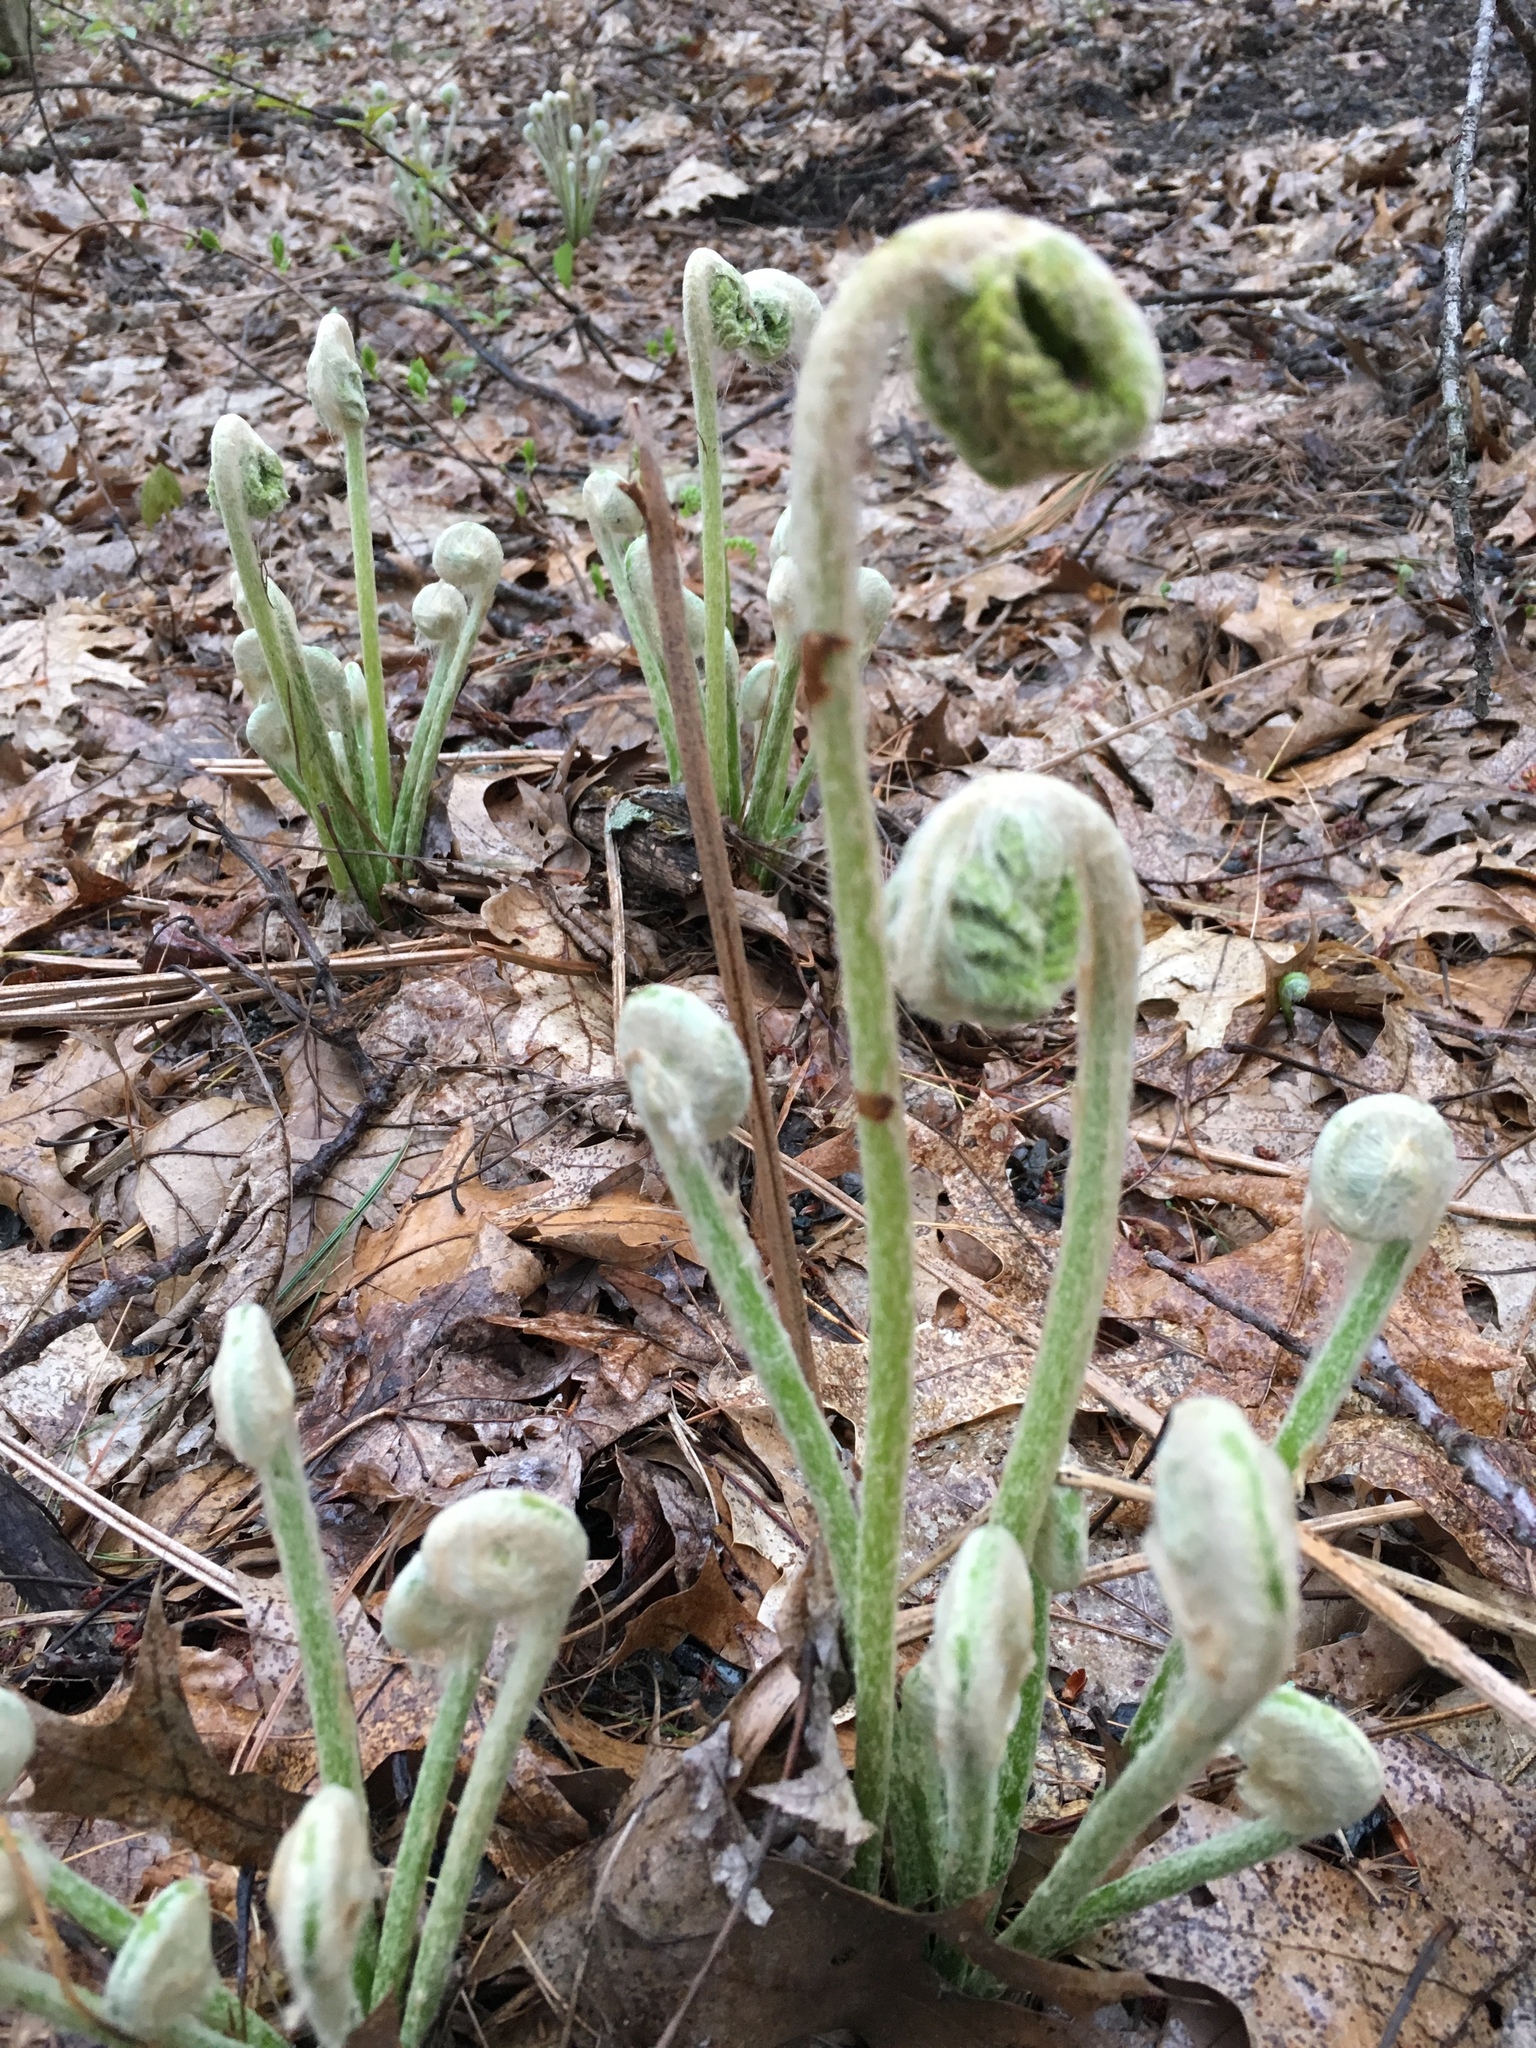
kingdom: Plantae
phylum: Tracheophyta
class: Polypodiopsida
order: Osmundales
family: Osmundaceae
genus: Osmundastrum
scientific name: Osmundastrum cinnamomeum
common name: Cinnamon fern
